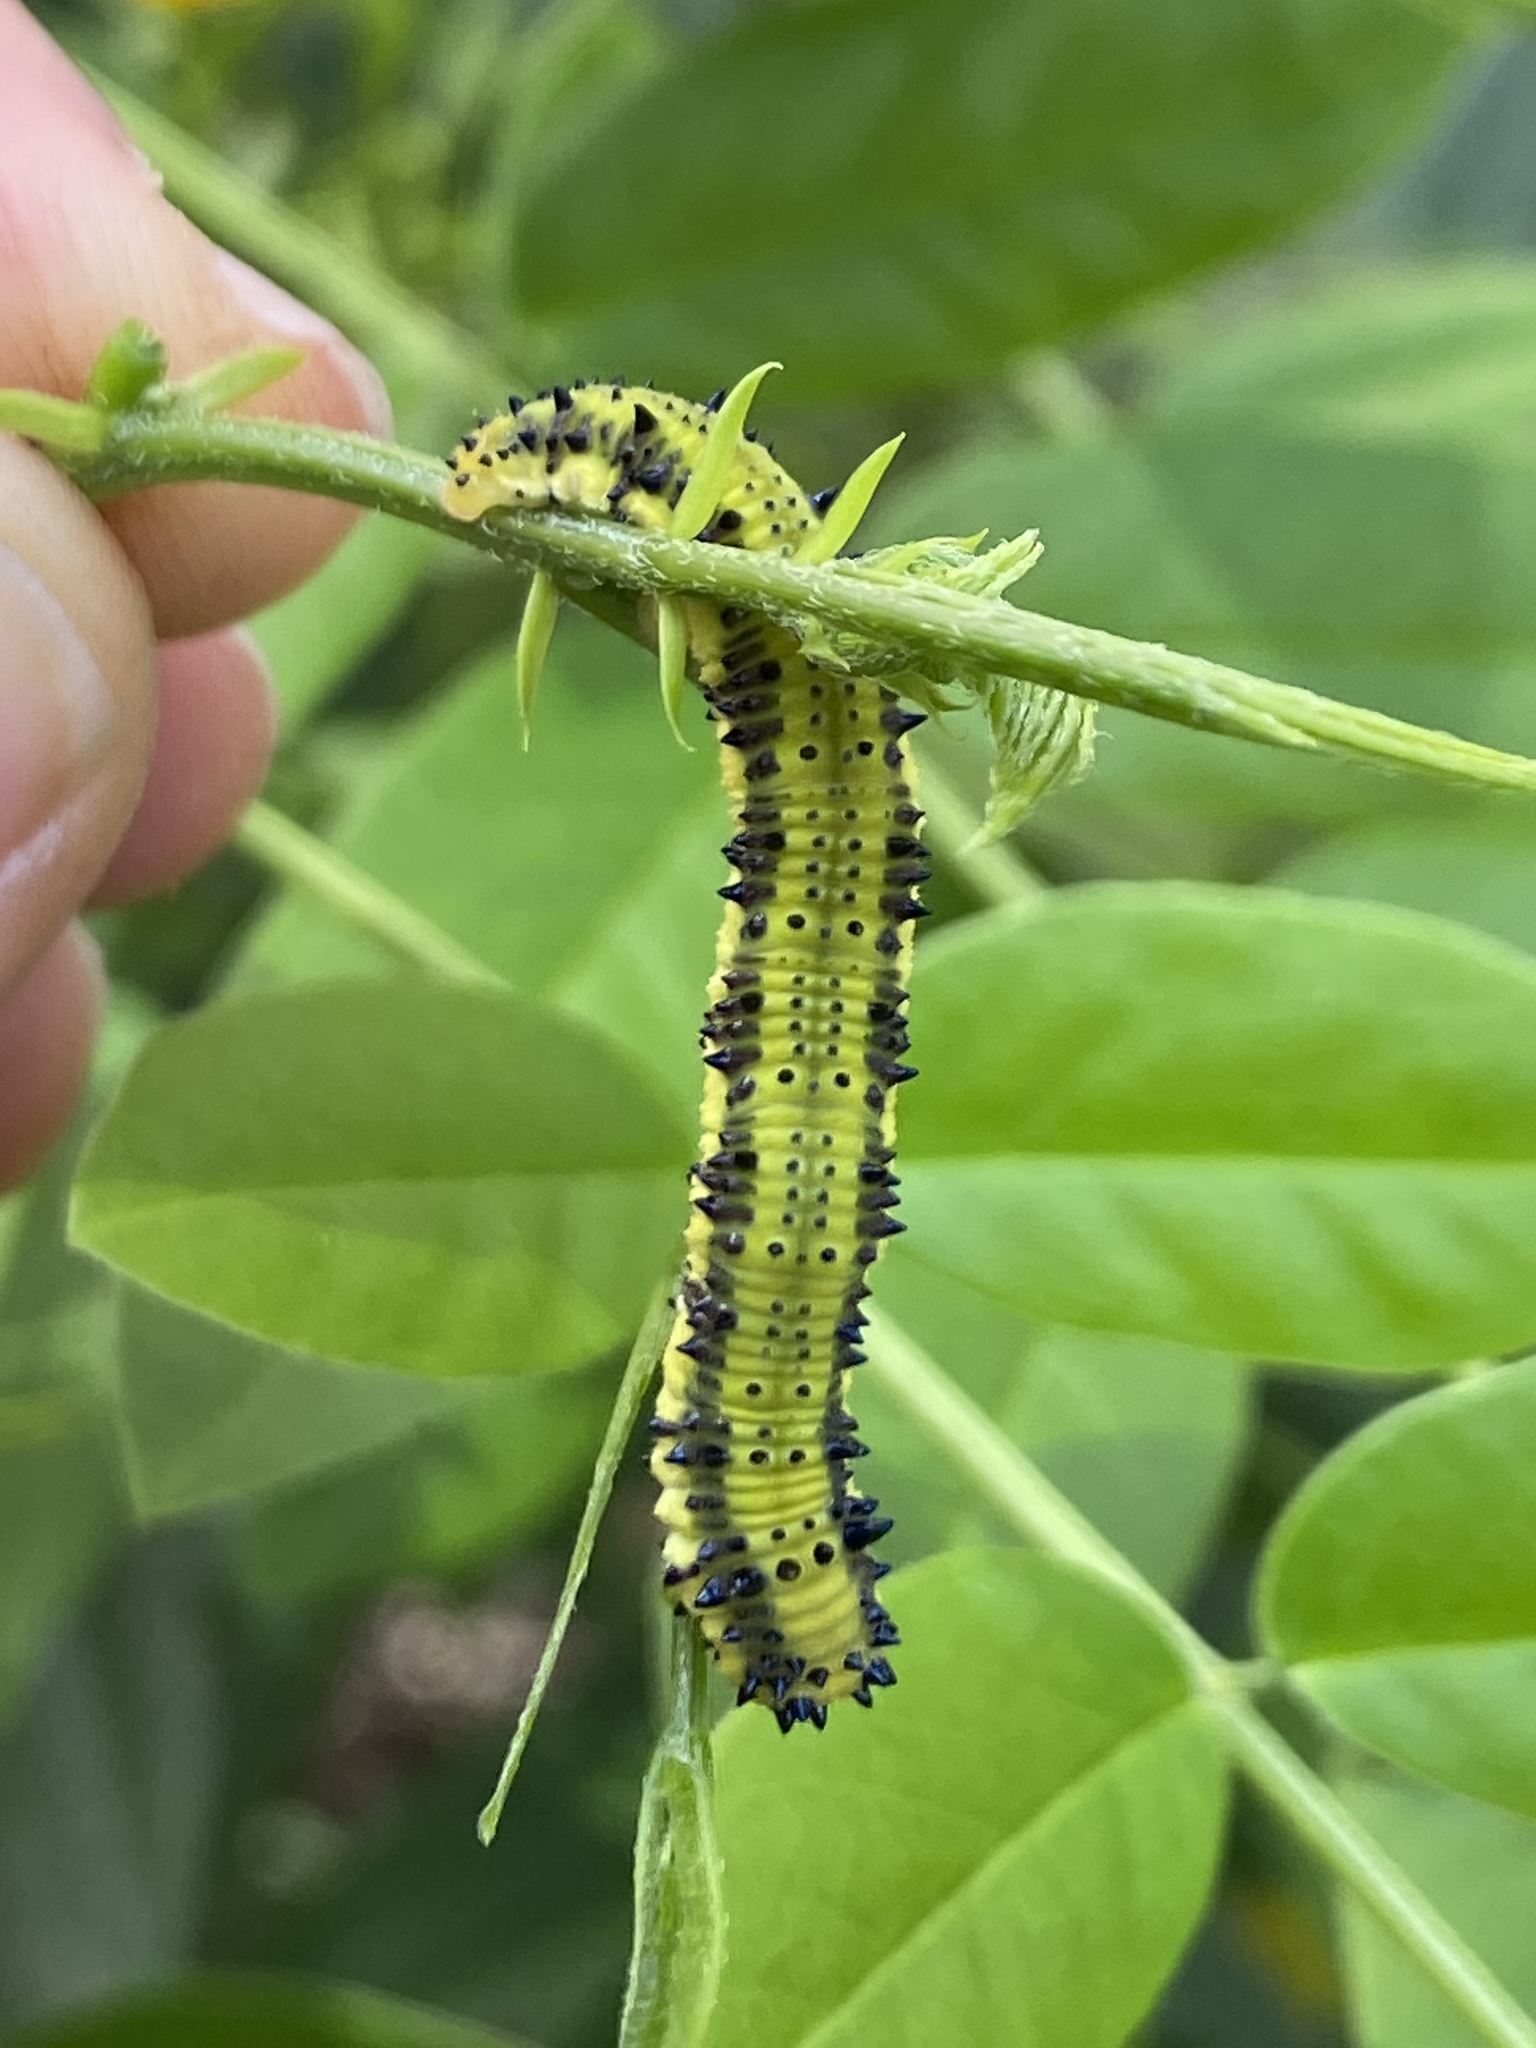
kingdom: Animalia
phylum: Arthropoda
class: Insecta
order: Lepidoptera
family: Pieridae
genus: Phoebis
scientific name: Phoebis philea
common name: Orange-barred giant sulphur
